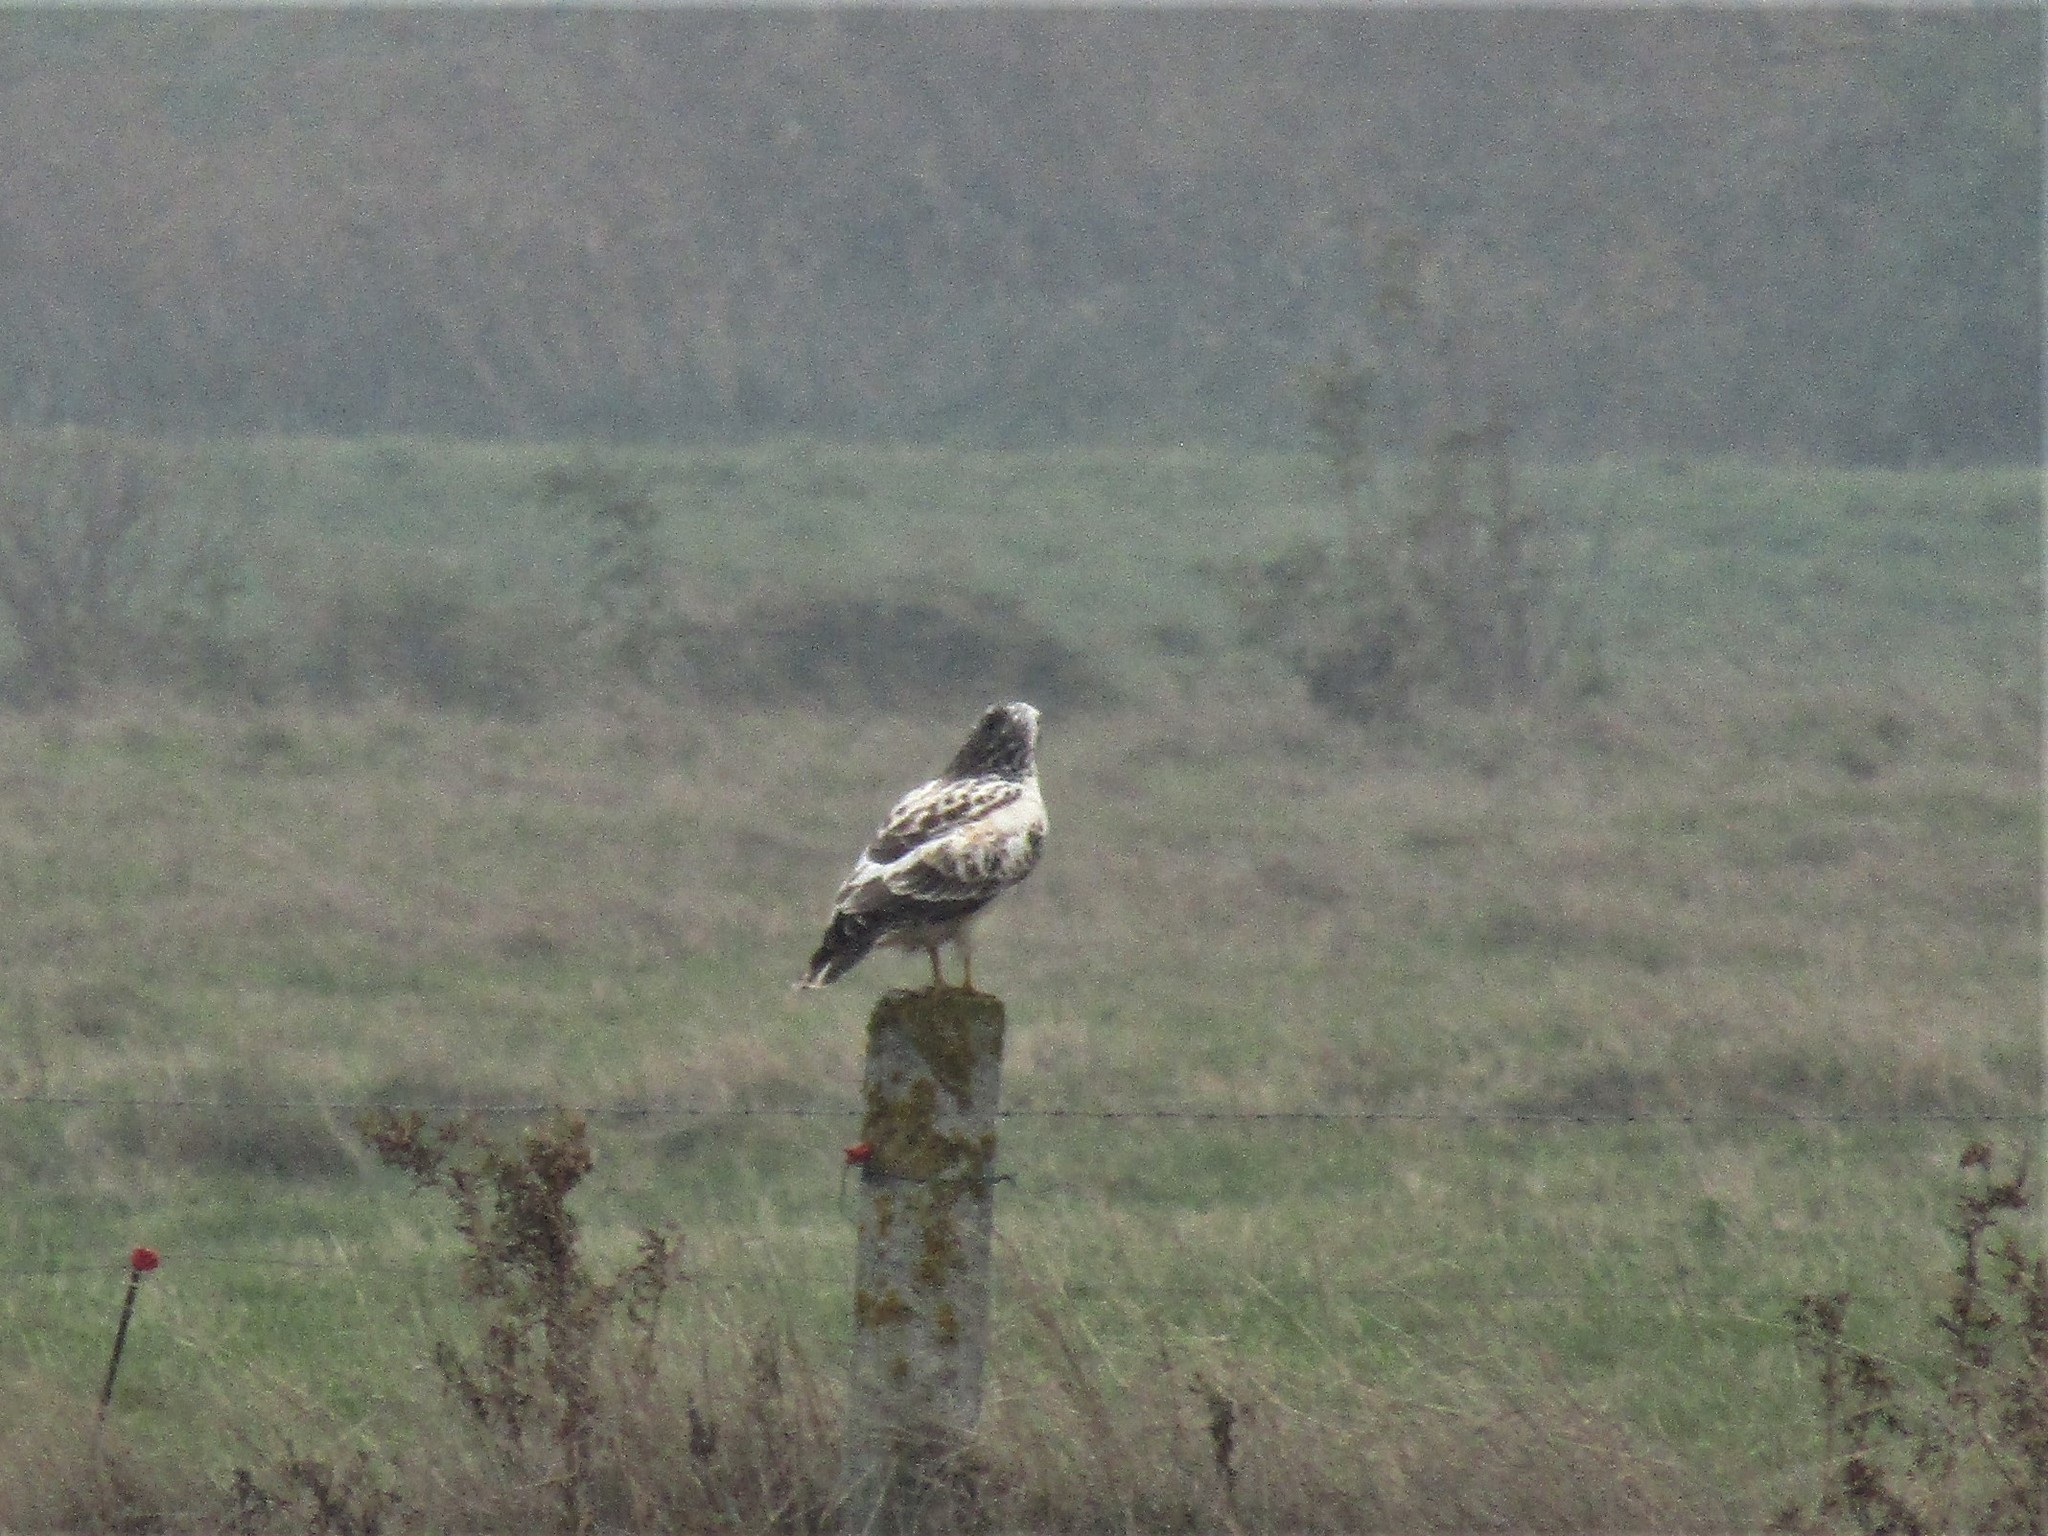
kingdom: Animalia
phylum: Chordata
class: Aves
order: Accipitriformes
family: Accipitridae
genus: Buteo
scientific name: Buteo buteo
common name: Common buzzard
